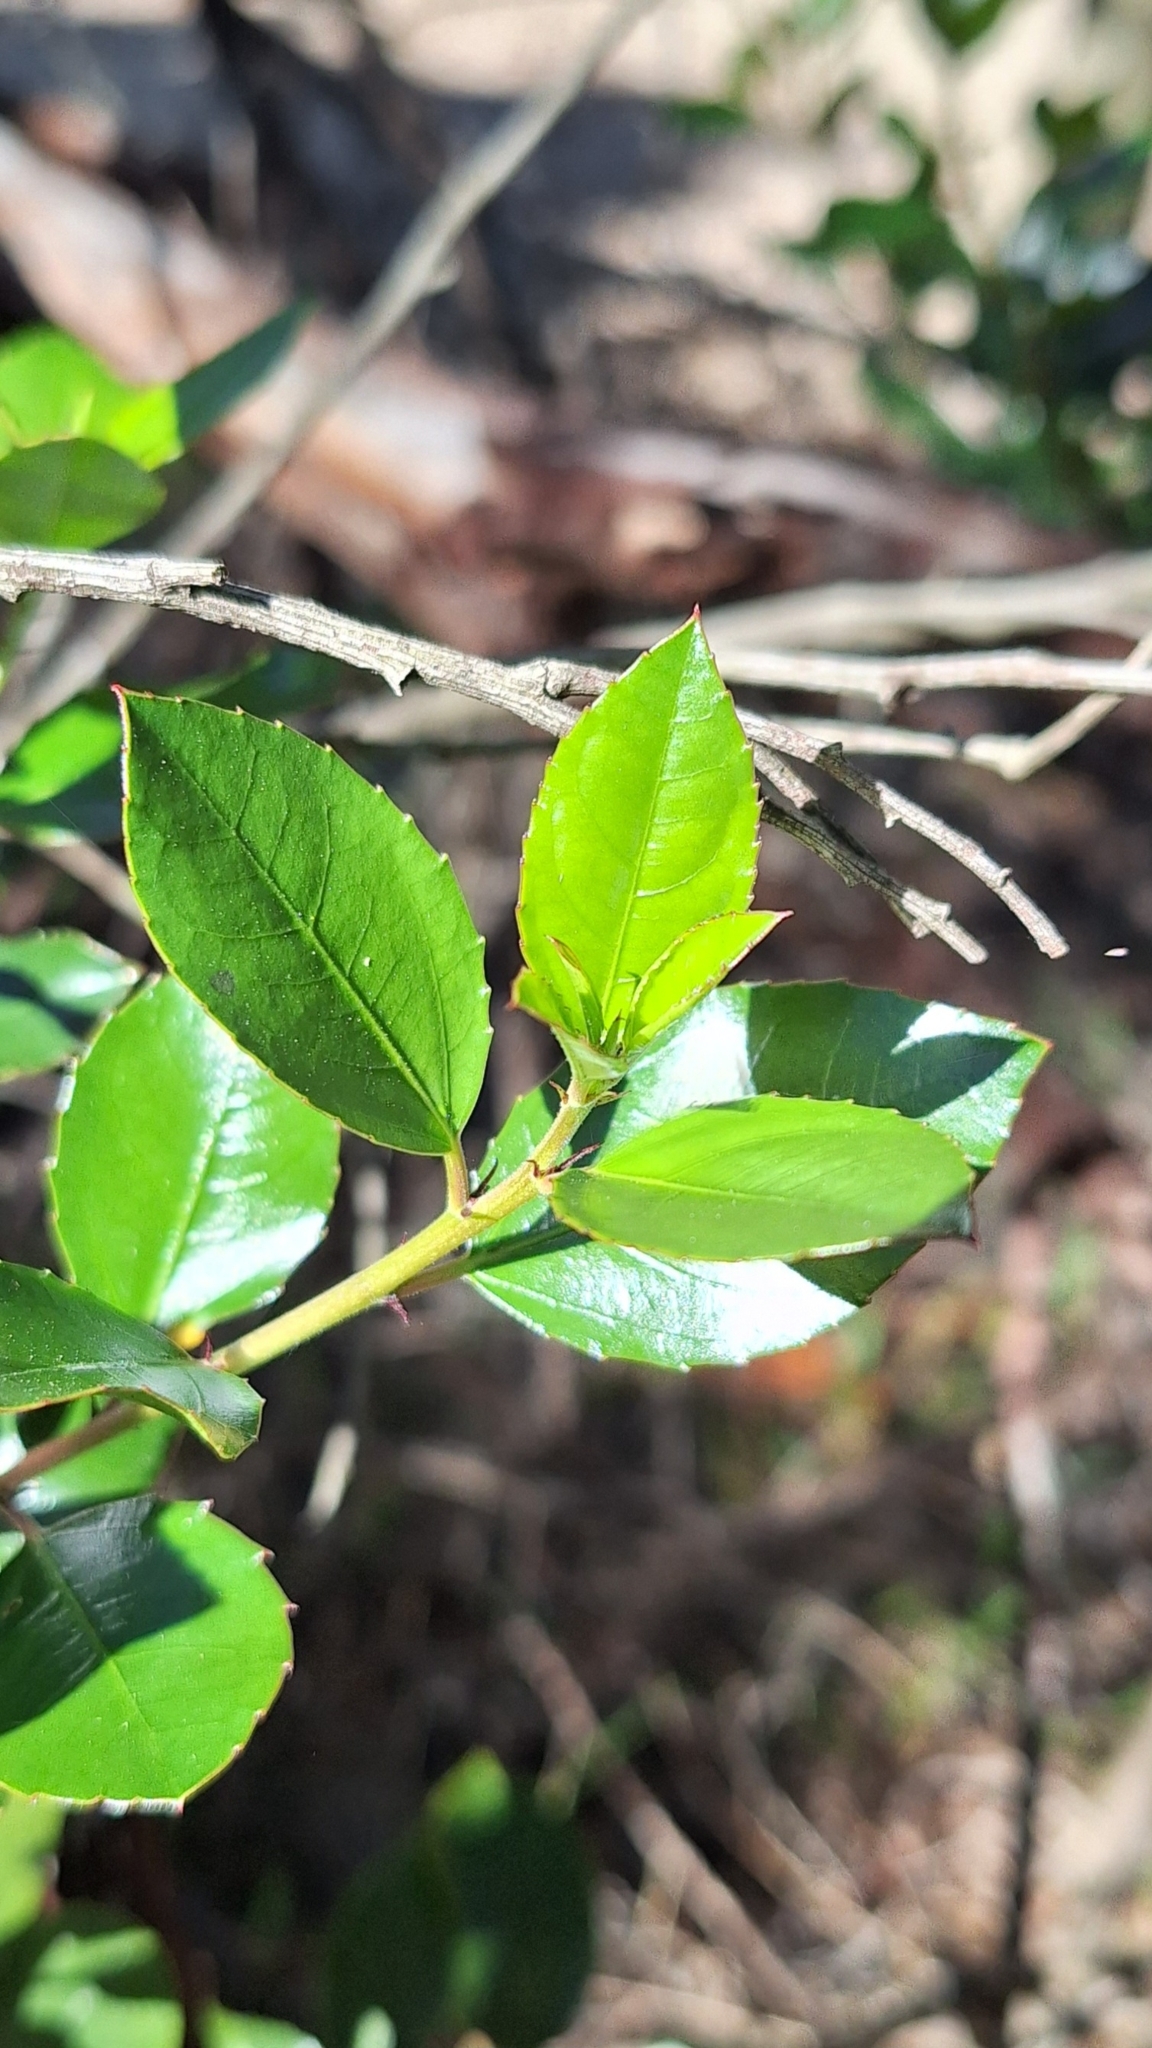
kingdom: Plantae
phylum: Tracheophyta
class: Magnoliopsida
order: Rosales
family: Rhamnaceae
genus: Rhamnus
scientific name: Rhamnus alaternus
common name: Mediterranean buckthorn
